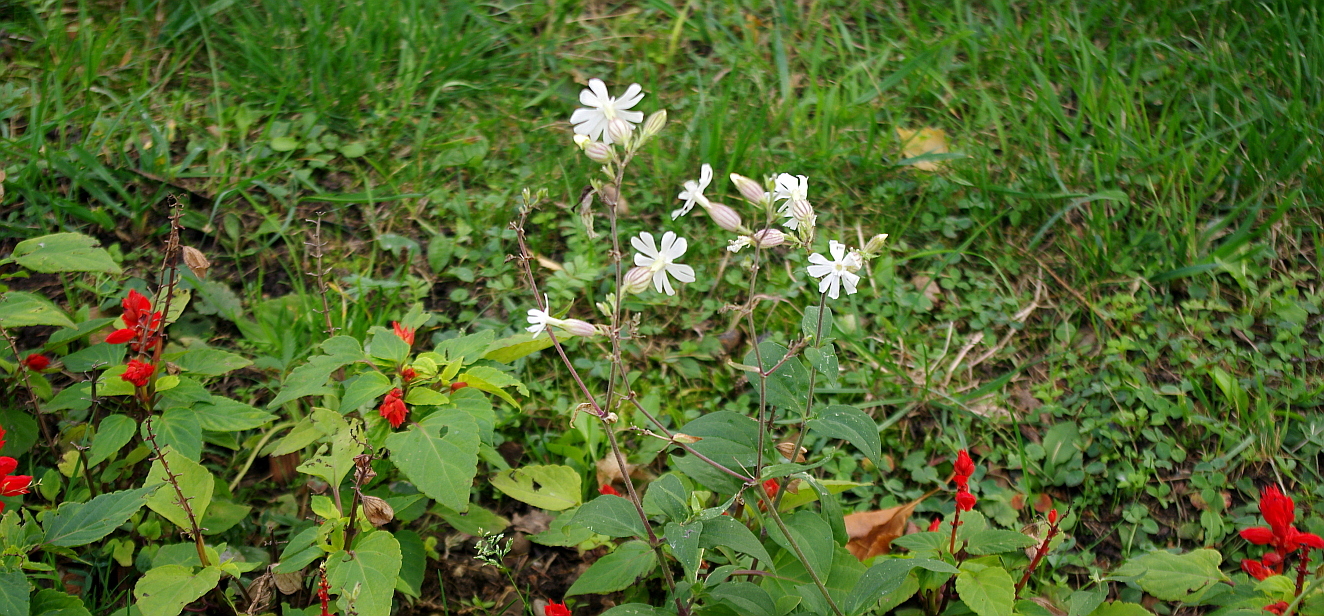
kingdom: Plantae
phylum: Tracheophyta
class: Magnoliopsida
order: Caryophyllales
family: Caryophyllaceae
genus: Silene
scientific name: Silene latifolia
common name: White campion
